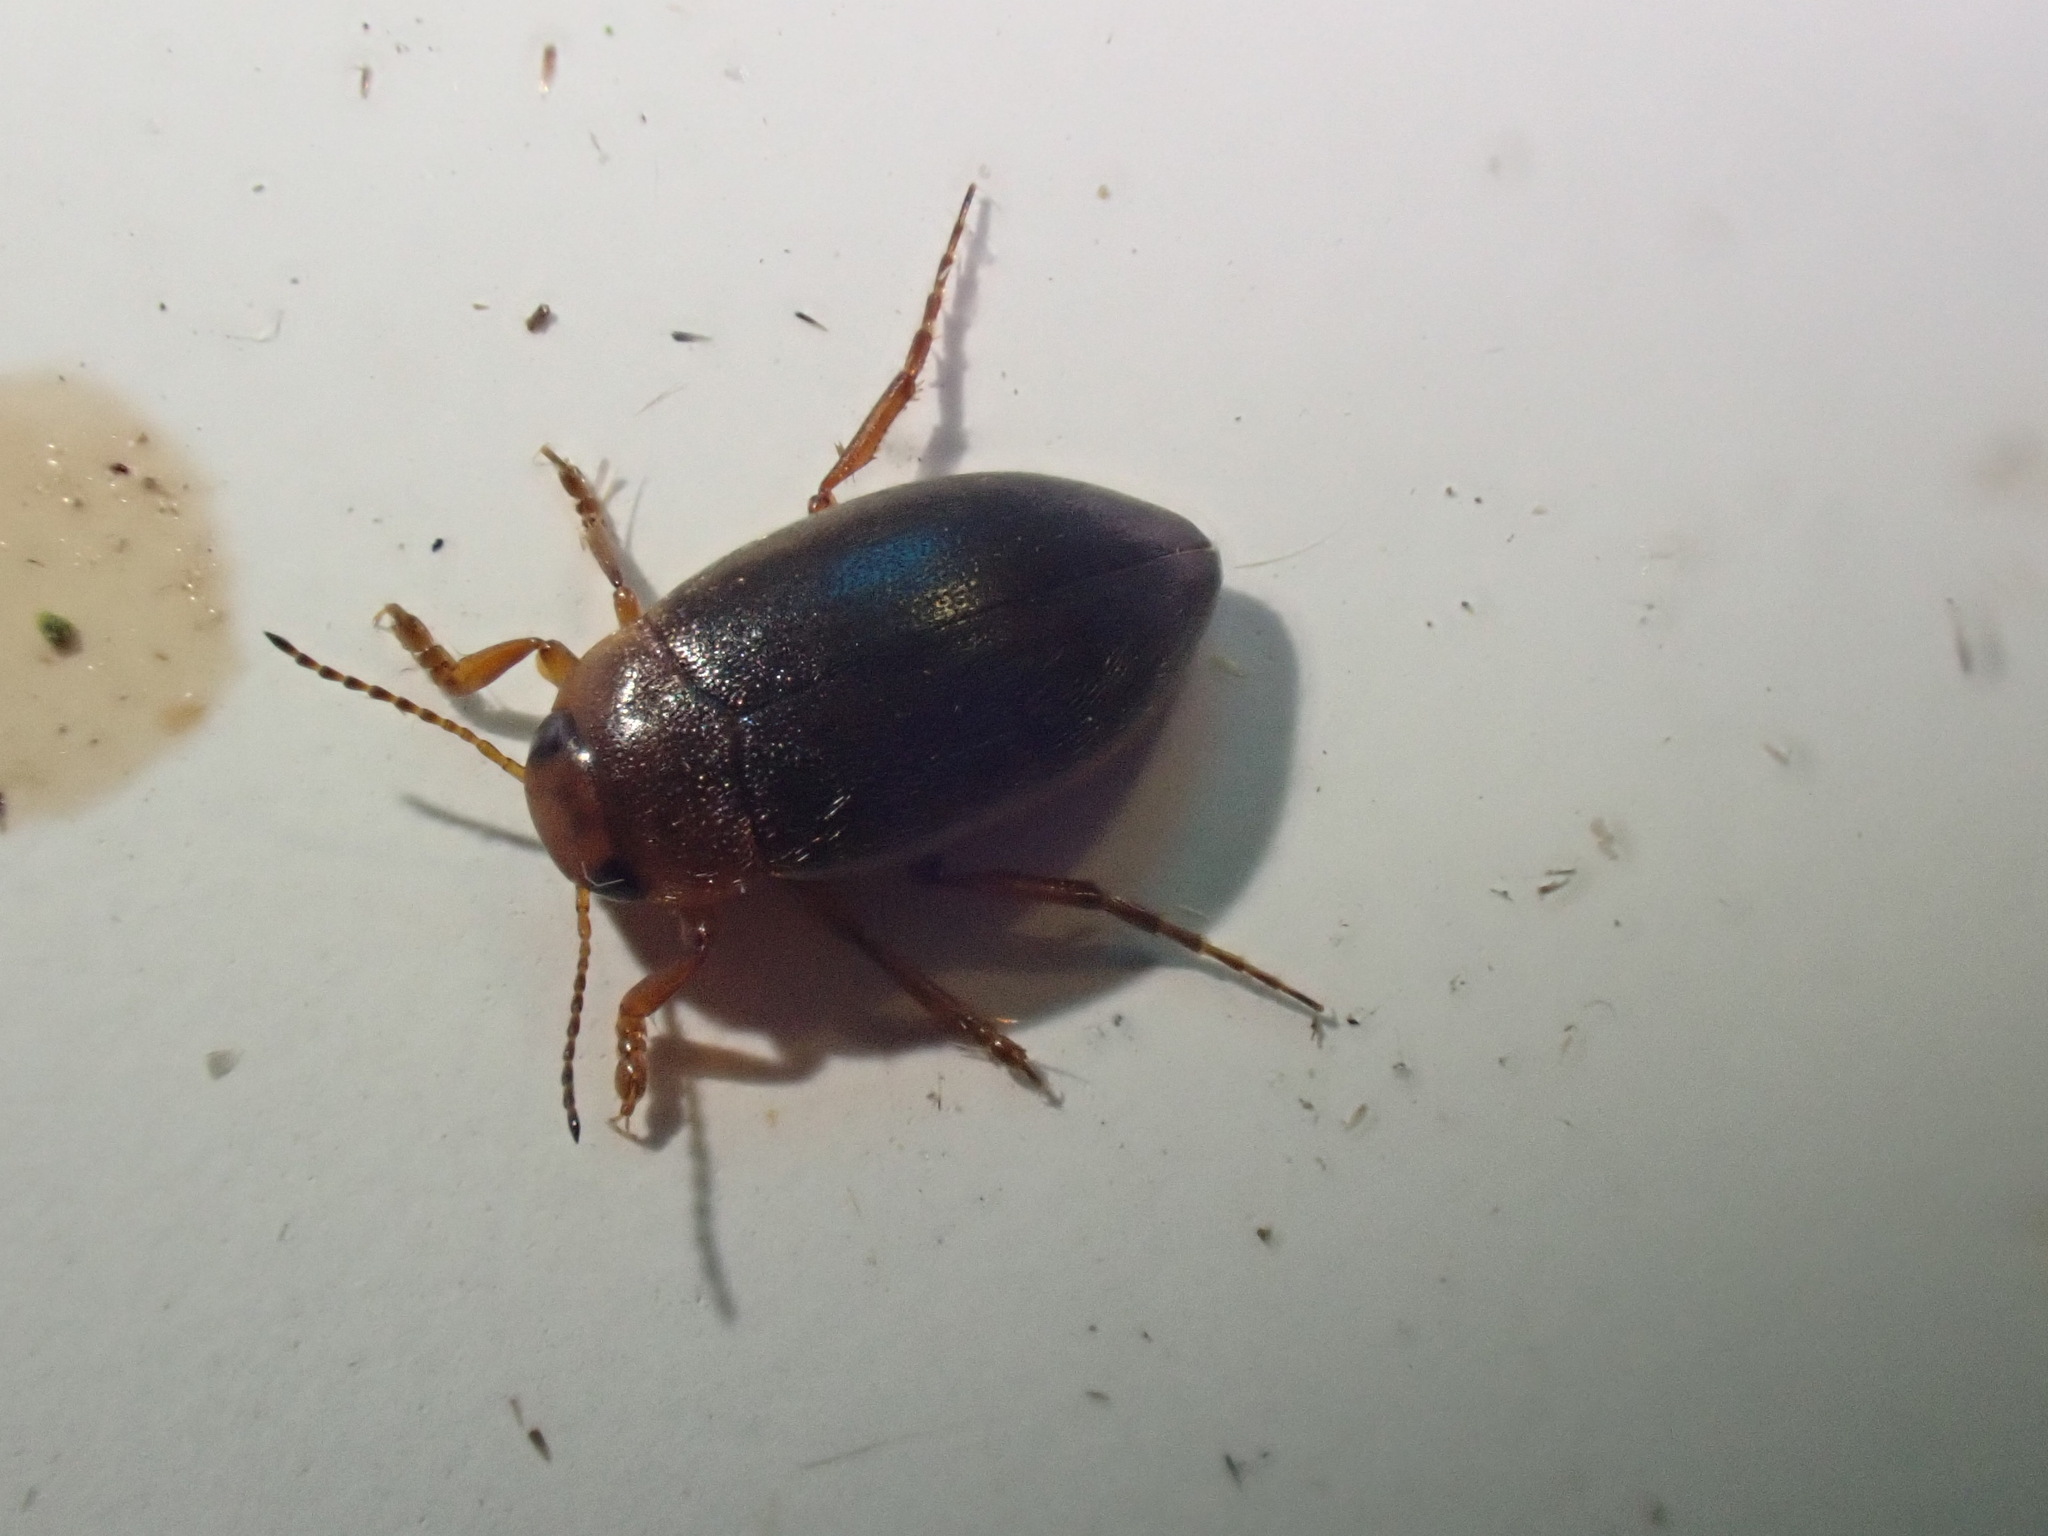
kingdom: Animalia
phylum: Arthropoda
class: Insecta
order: Coleoptera
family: Dytiscidae
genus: Hydroporus
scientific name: Hydroporus angustatus
